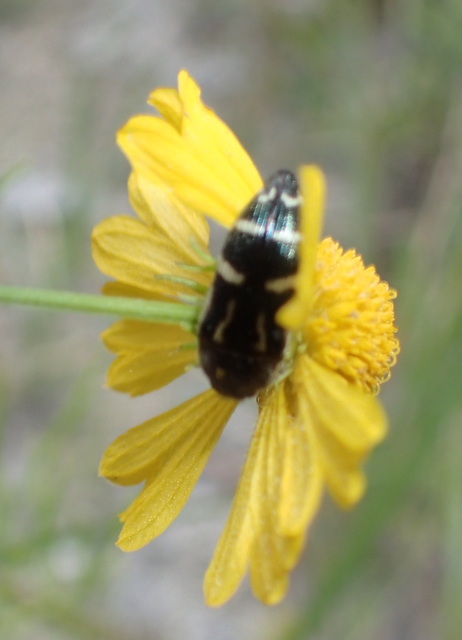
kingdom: Animalia
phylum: Arthropoda
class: Insecta
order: Coleoptera
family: Buprestidae
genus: Acmaeodera
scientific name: Acmaeodera pulchella
